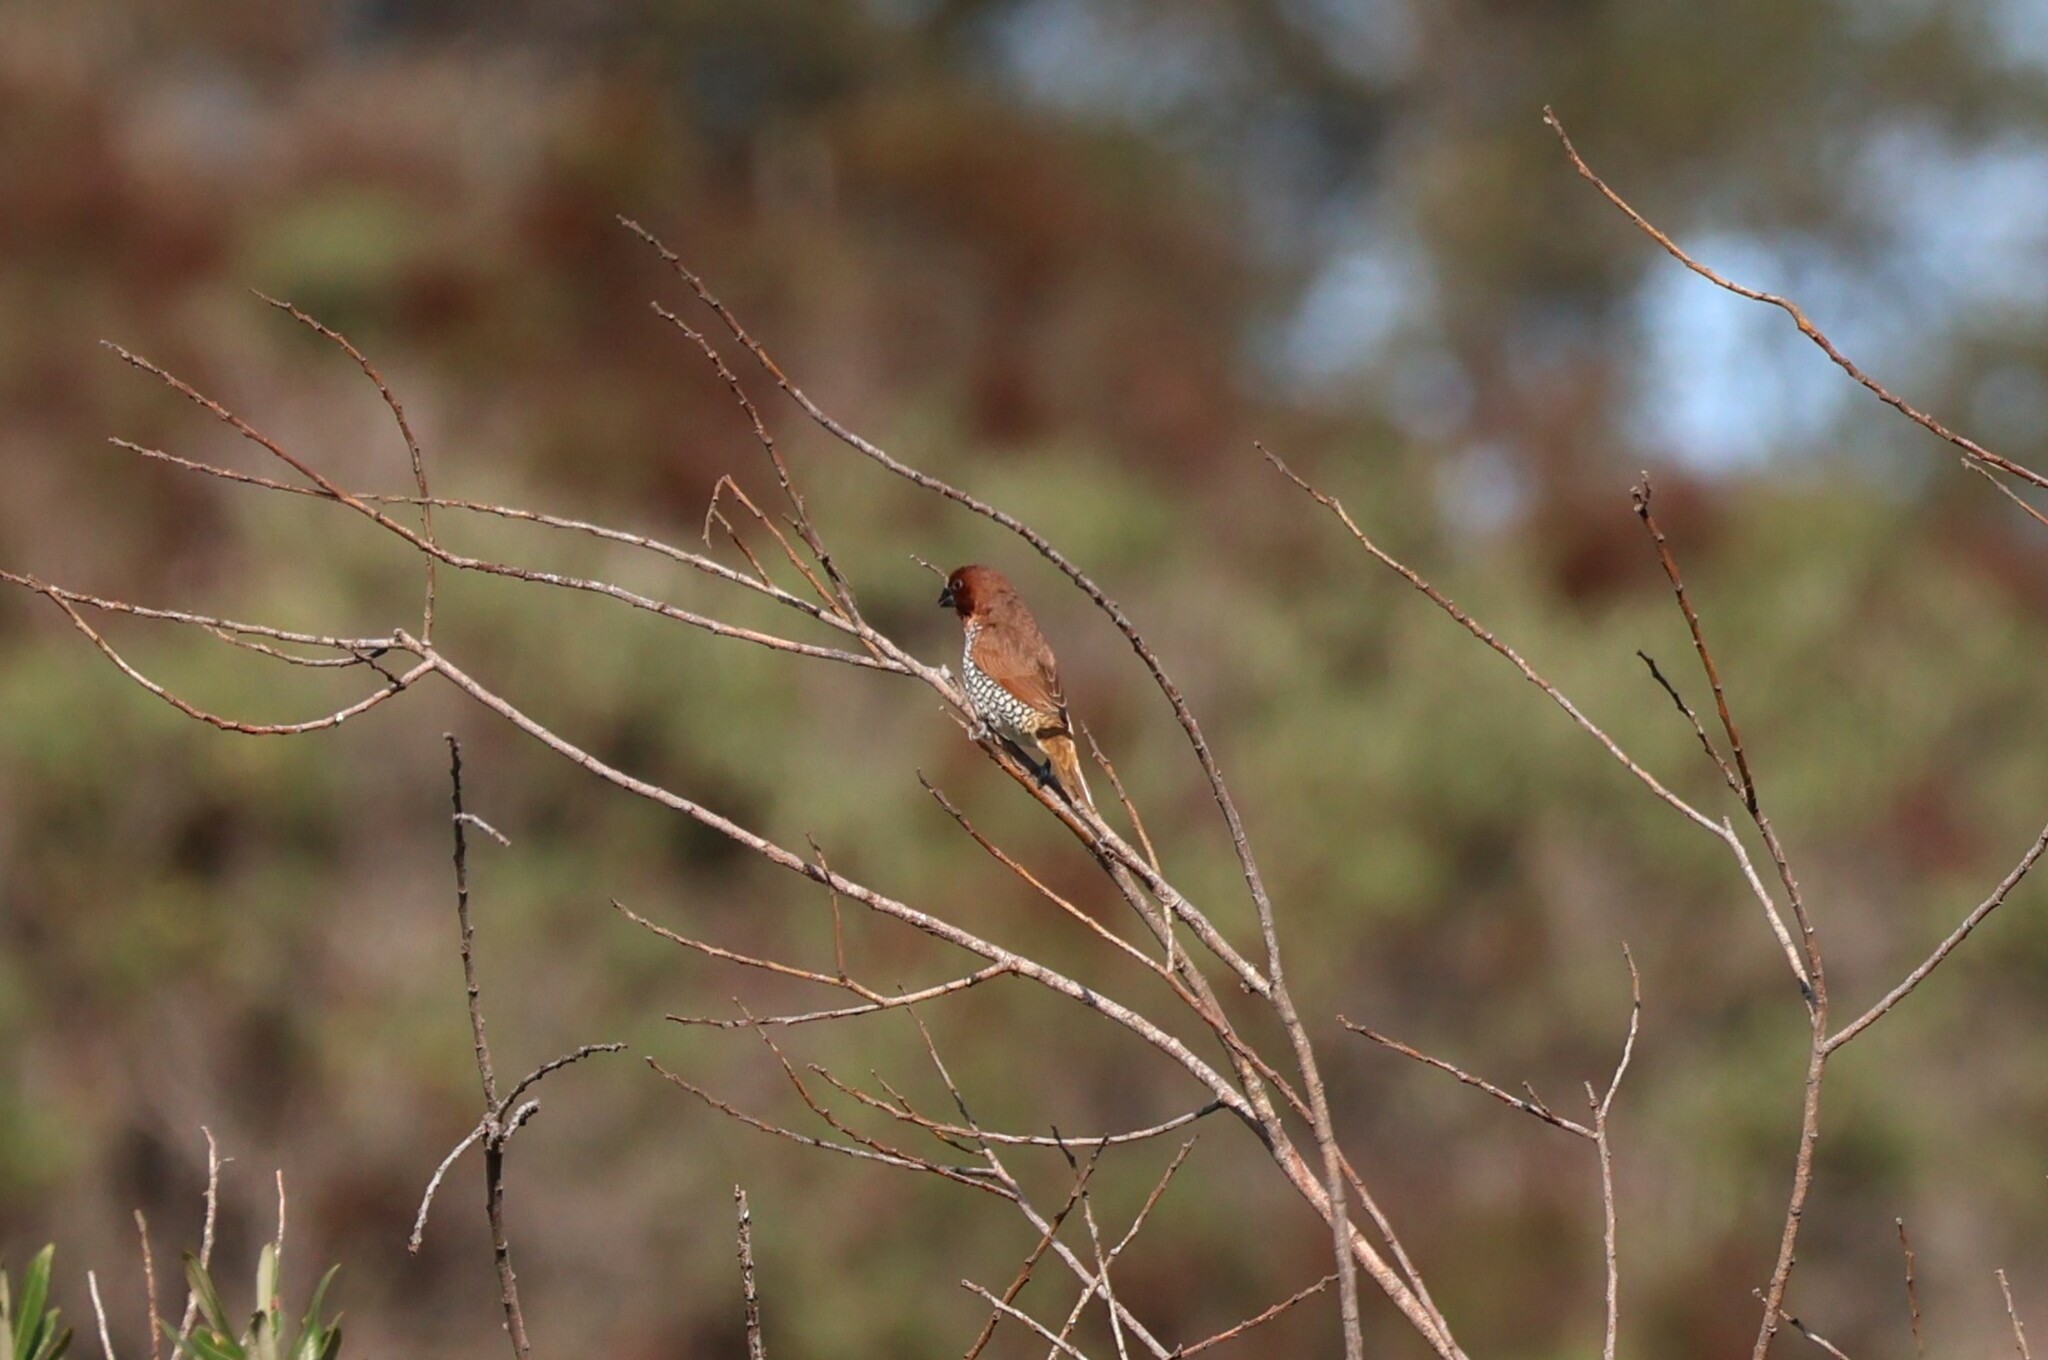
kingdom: Animalia
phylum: Chordata
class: Aves
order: Passeriformes
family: Estrildidae
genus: Lonchura
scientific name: Lonchura punctulata
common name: Scaly-breasted munia
